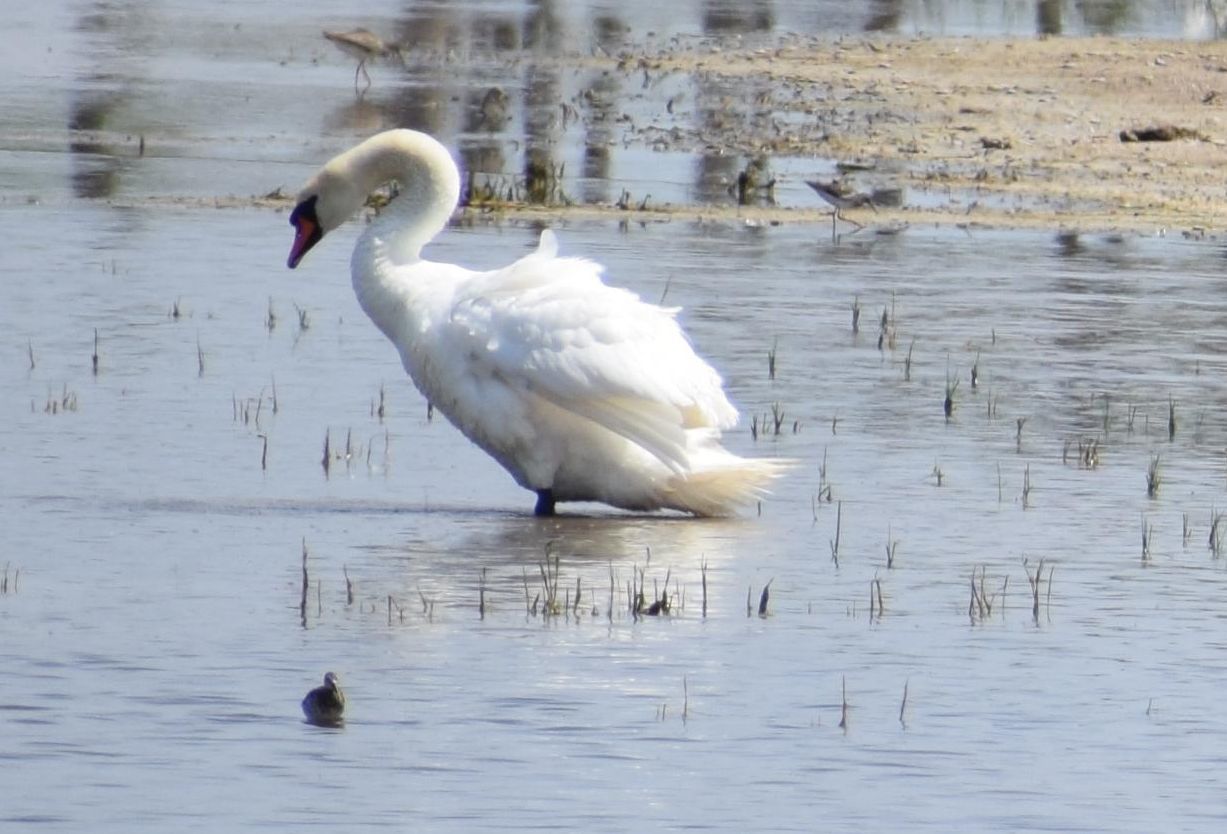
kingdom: Animalia
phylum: Chordata
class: Aves
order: Anseriformes
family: Anatidae
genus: Cygnus
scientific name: Cygnus olor
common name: Mute swan
